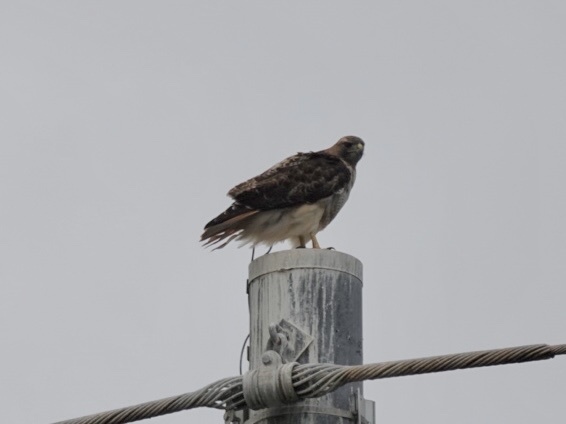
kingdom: Animalia
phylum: Chordata
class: Aves
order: Accipitriformes
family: Accipitridae
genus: Buteo
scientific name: Buteo jamaicensis
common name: Red-tailed hawk
